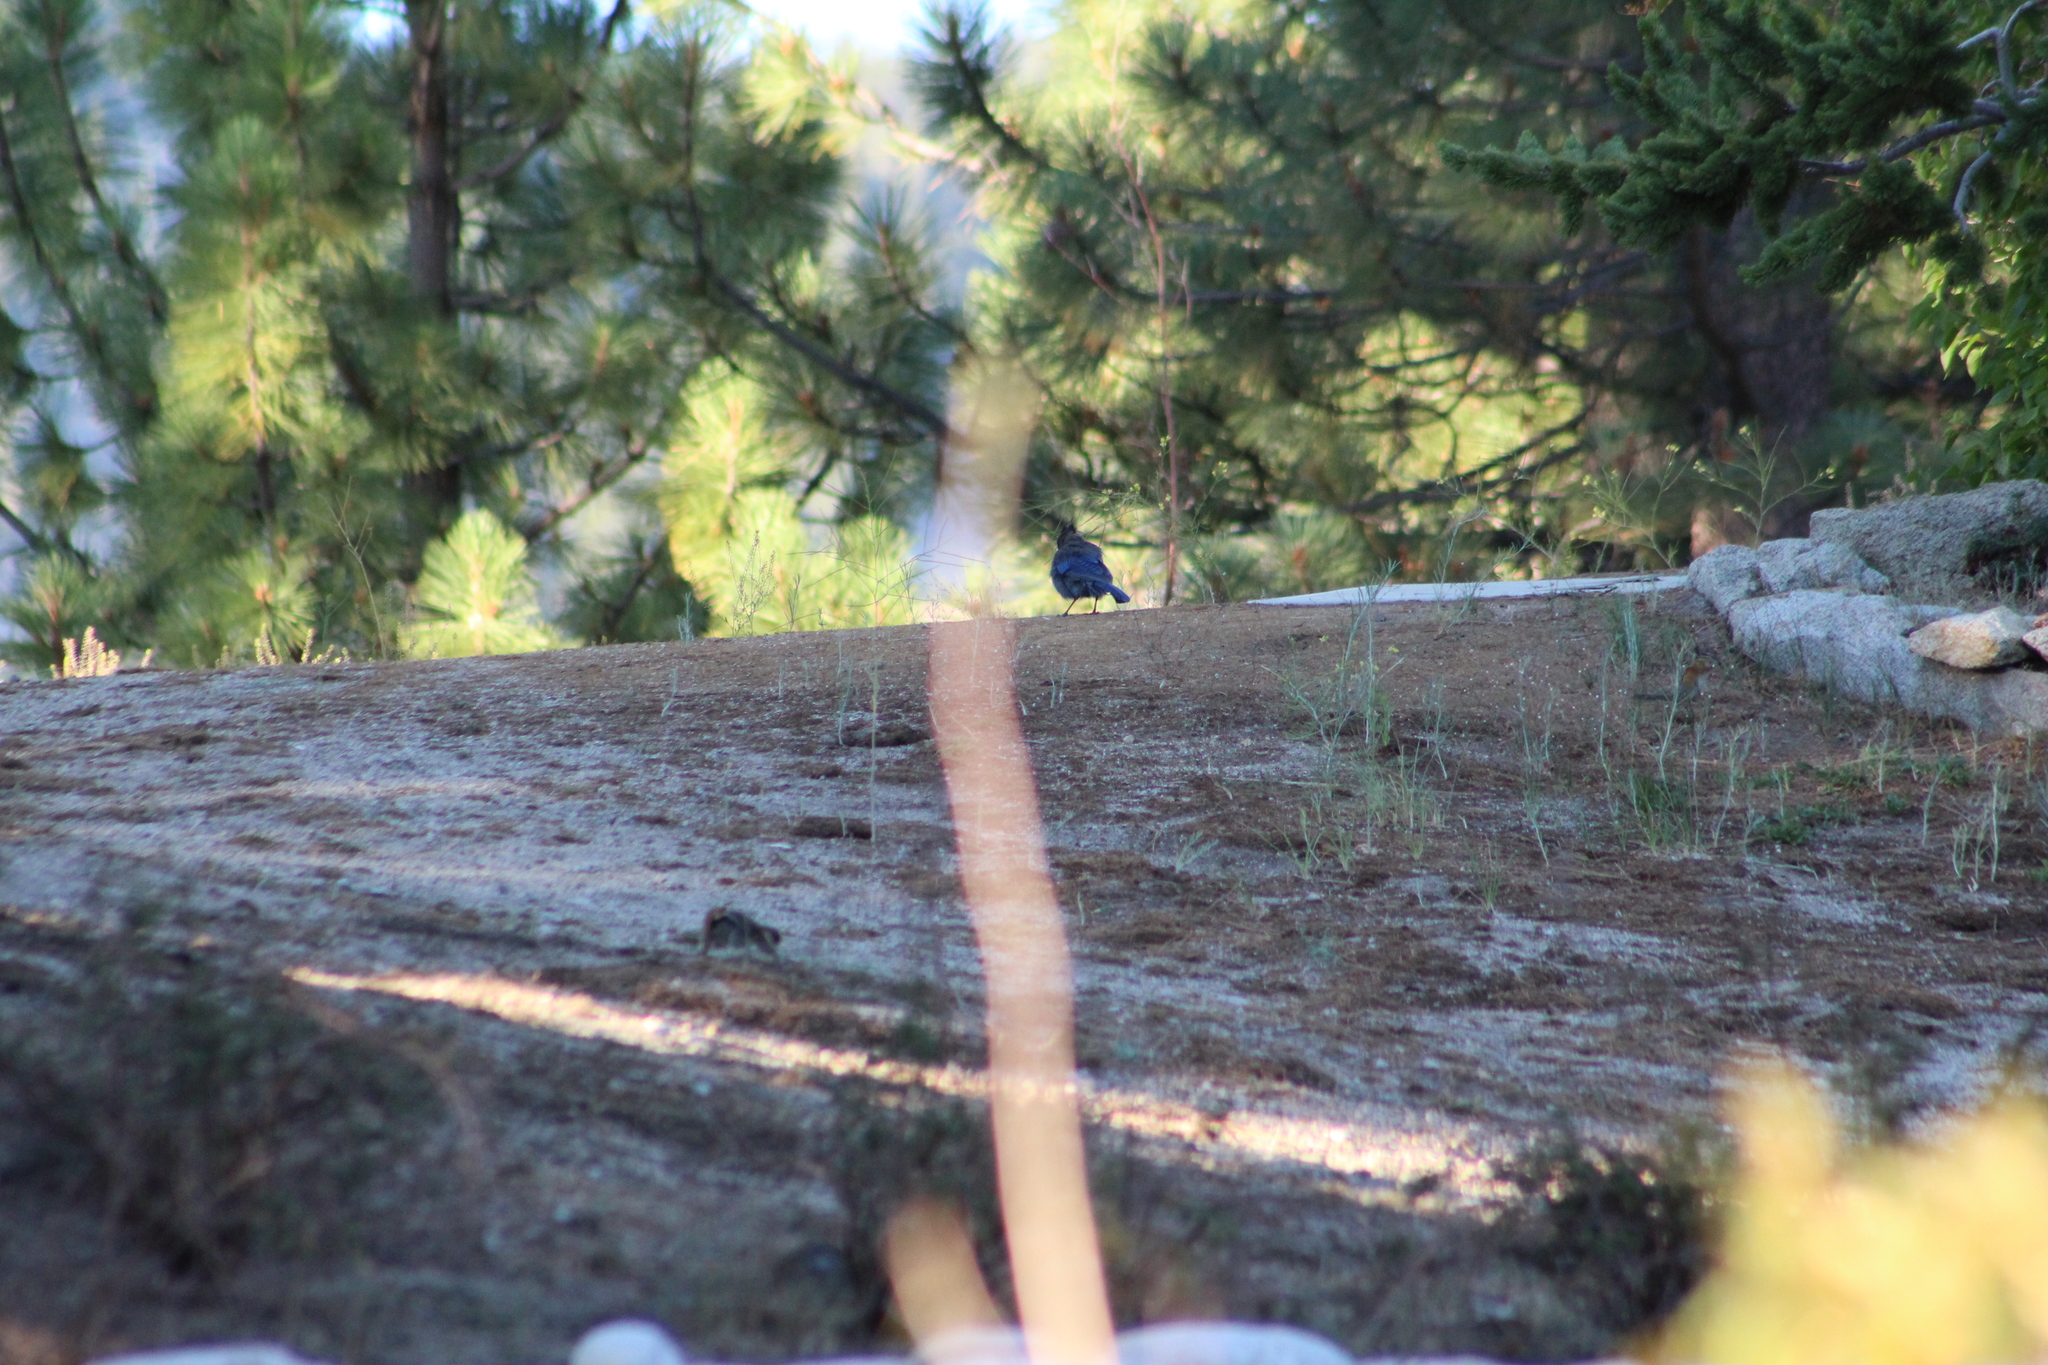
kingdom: Animalia
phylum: Chordata
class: Aves
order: Passeriformes
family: Corvidae
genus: Cyanocitta
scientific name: Cyanocitta stelleri
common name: Steller's jay
